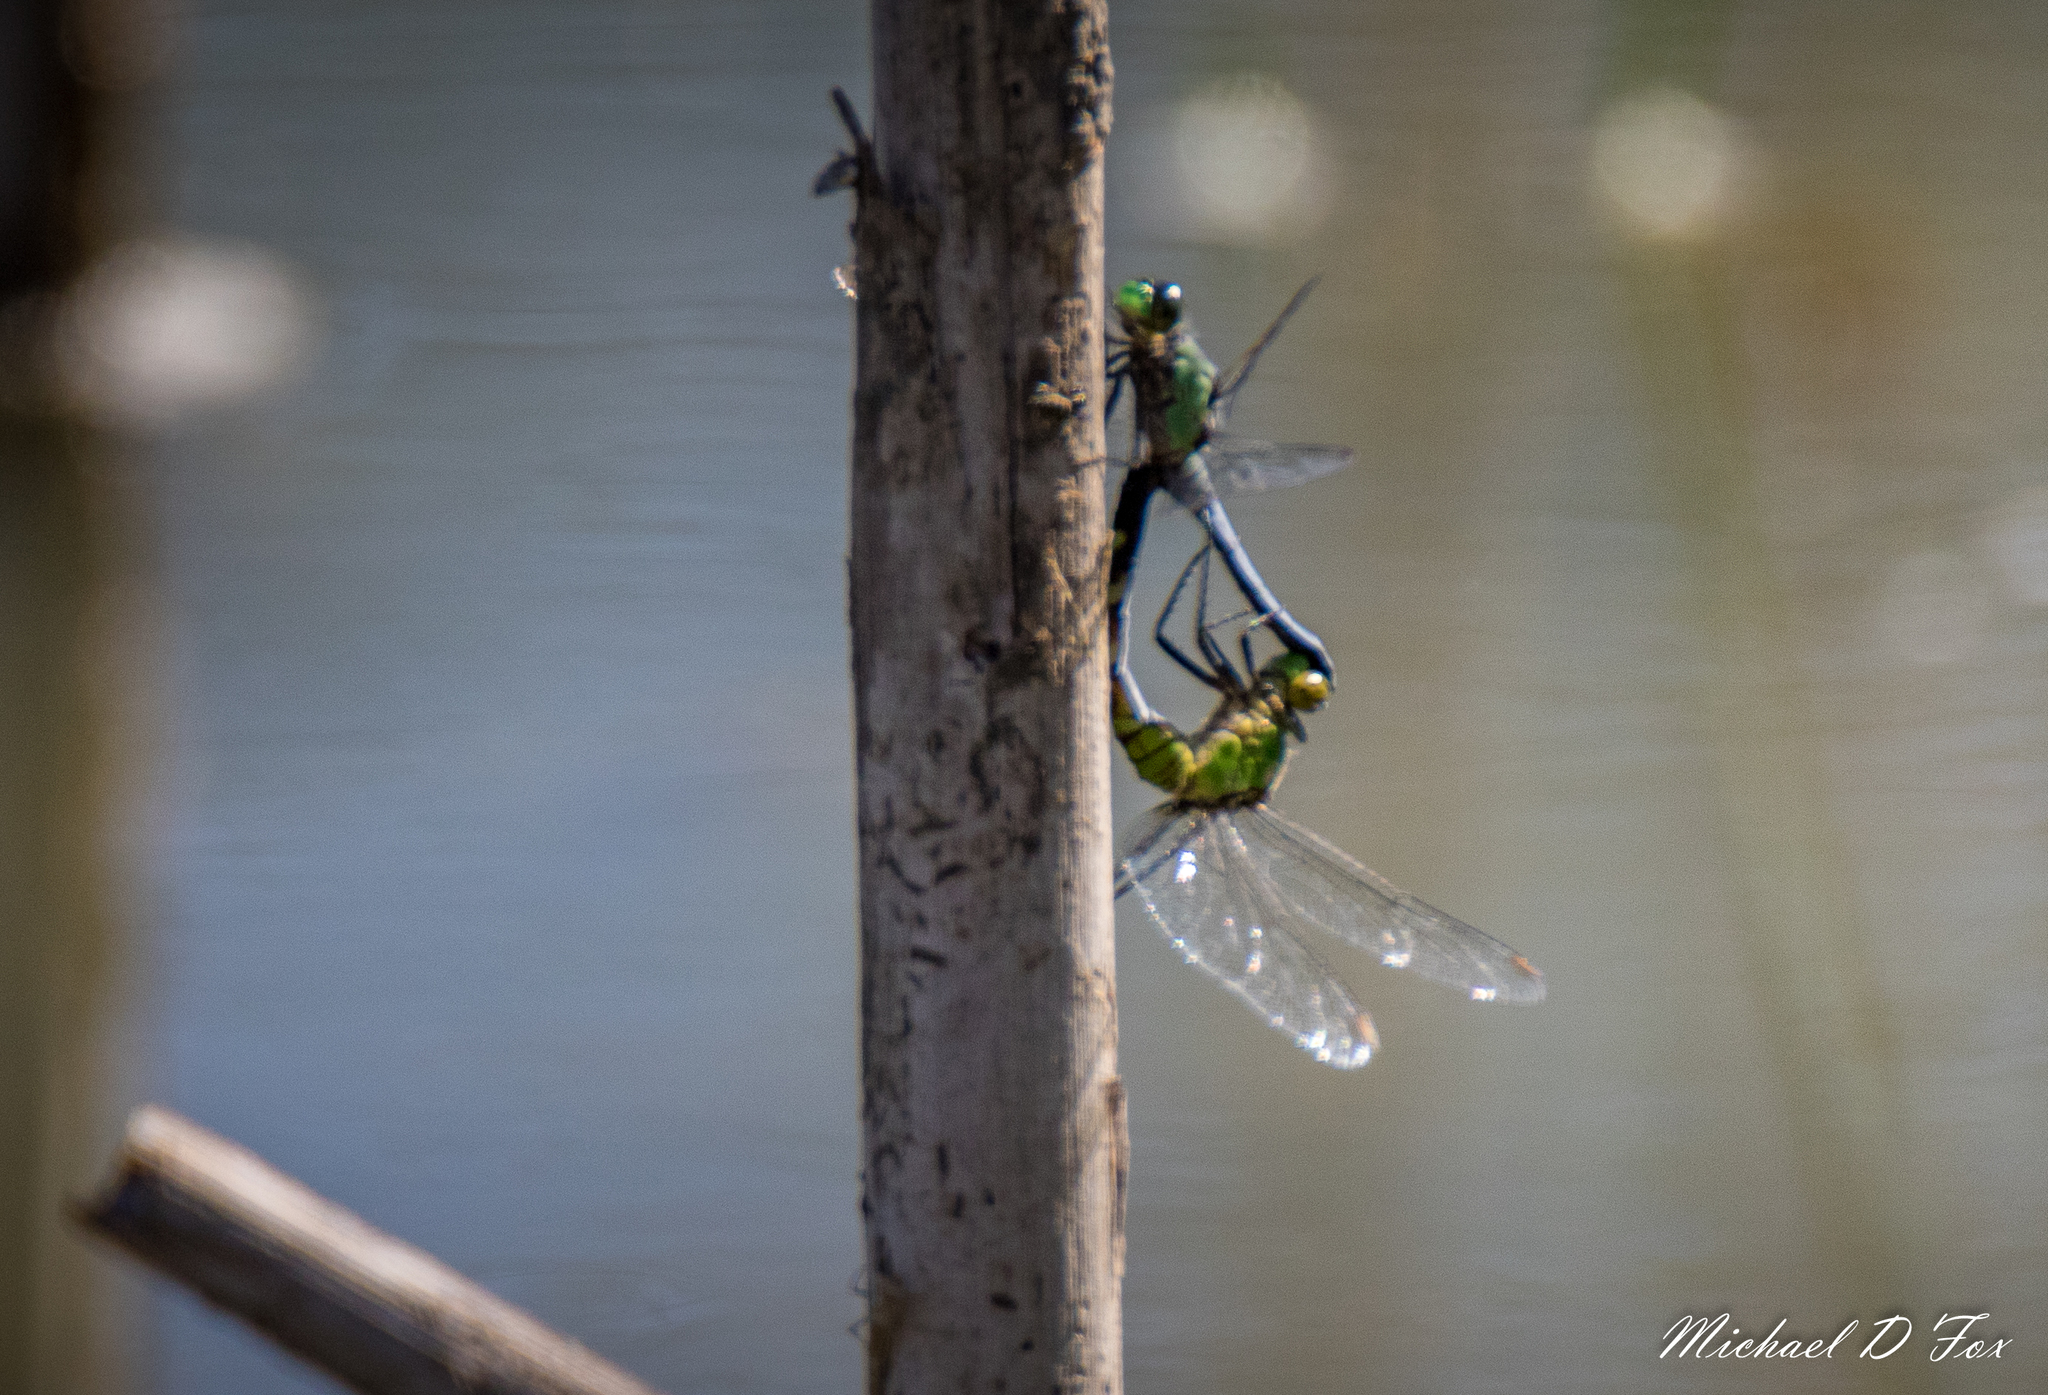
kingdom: Animalia
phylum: Arthropoda
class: Insecta
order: Odonata
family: Libellulidae
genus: Erythemis
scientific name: Erythemis simplicicollis
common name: Eastern pondhawk
